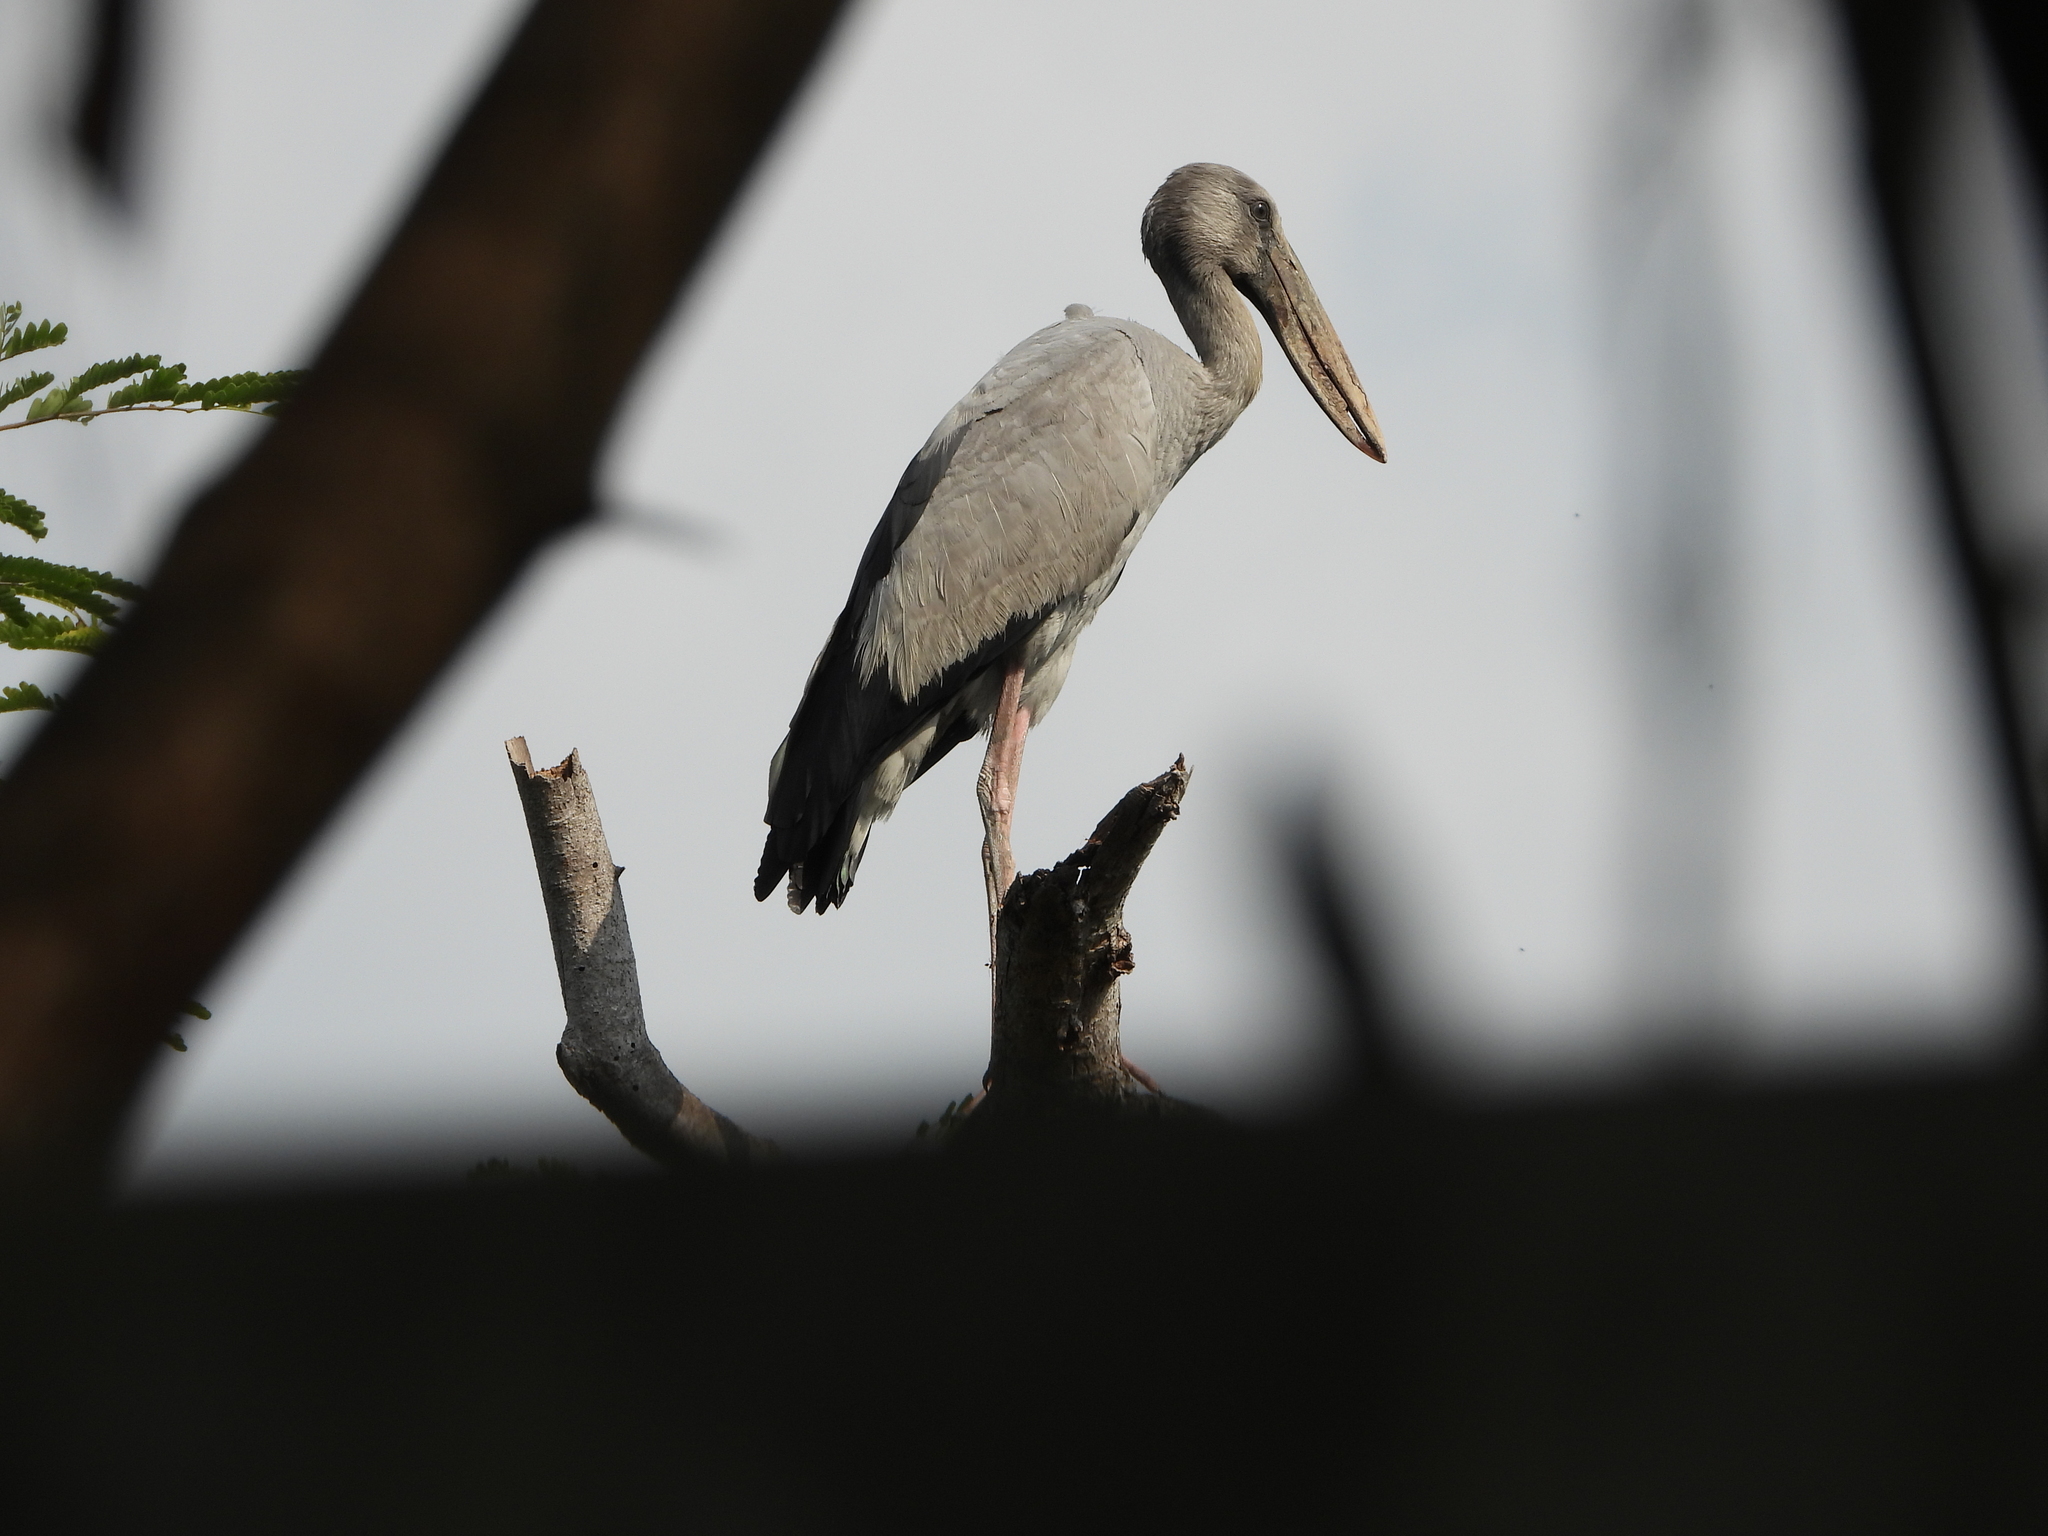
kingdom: Animalia
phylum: Chordata
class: Aves
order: Ciconiiformes
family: Ciconiidae
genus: Anastomus
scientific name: Anastomus oscitans
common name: Asian openbill
